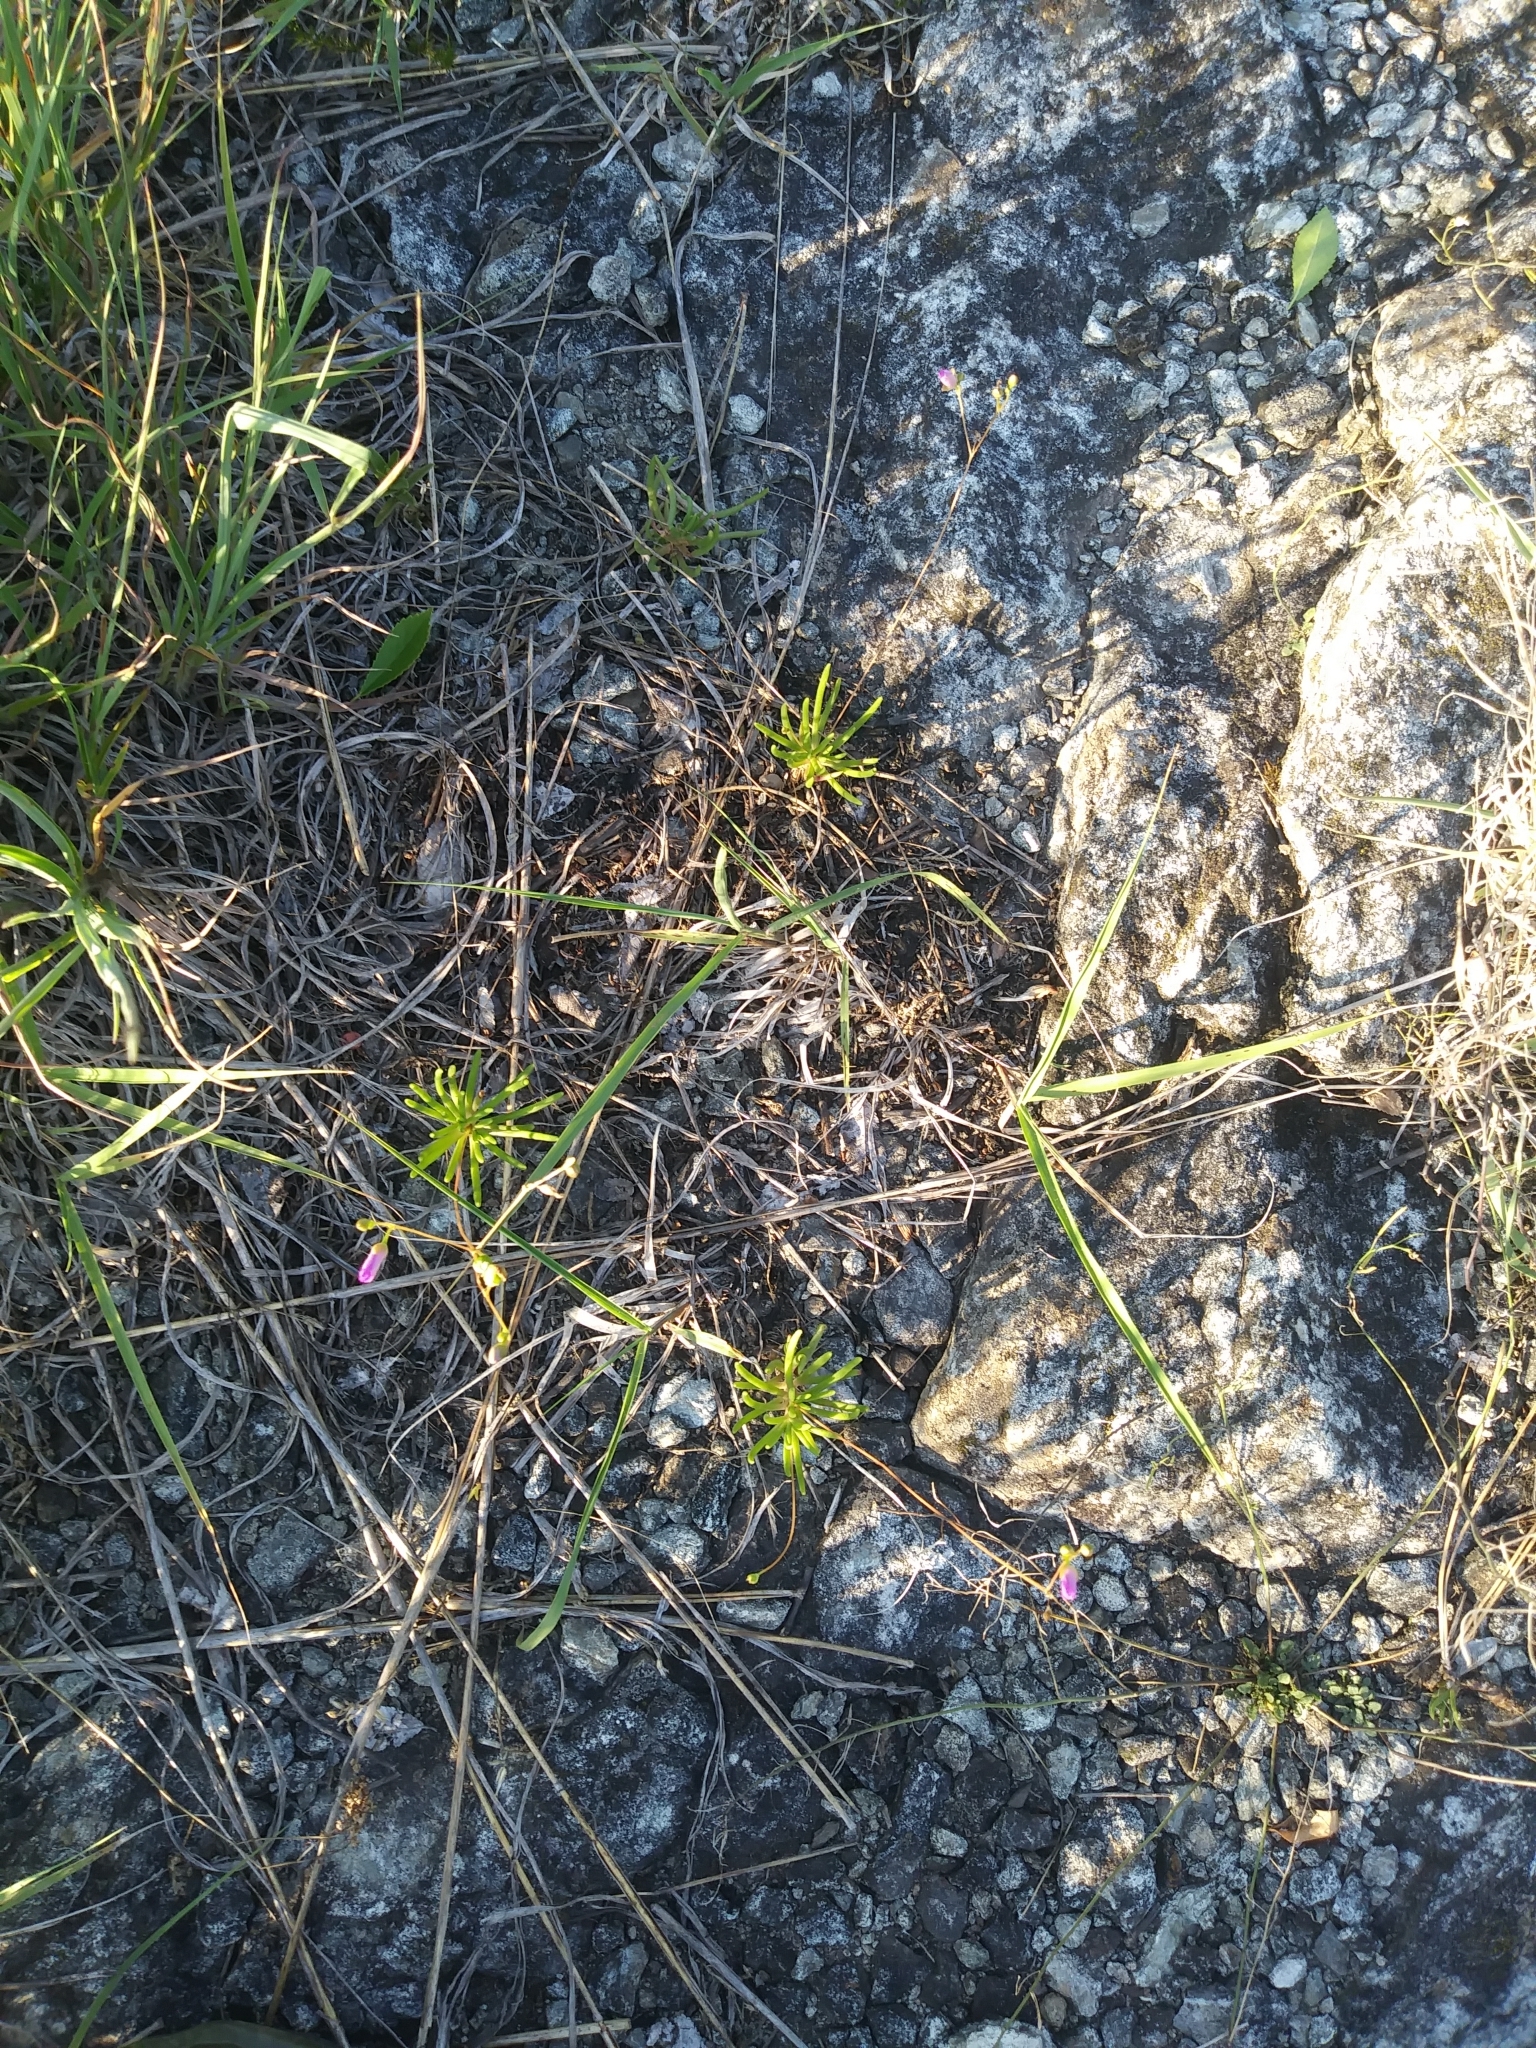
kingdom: Plantae
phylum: Tracheophyta
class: Magnoliopsida
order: Caryophyllales
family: Montiaceae
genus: Phemeranthus
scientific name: Phemeranthus teretifolius
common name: Quill fameflower
